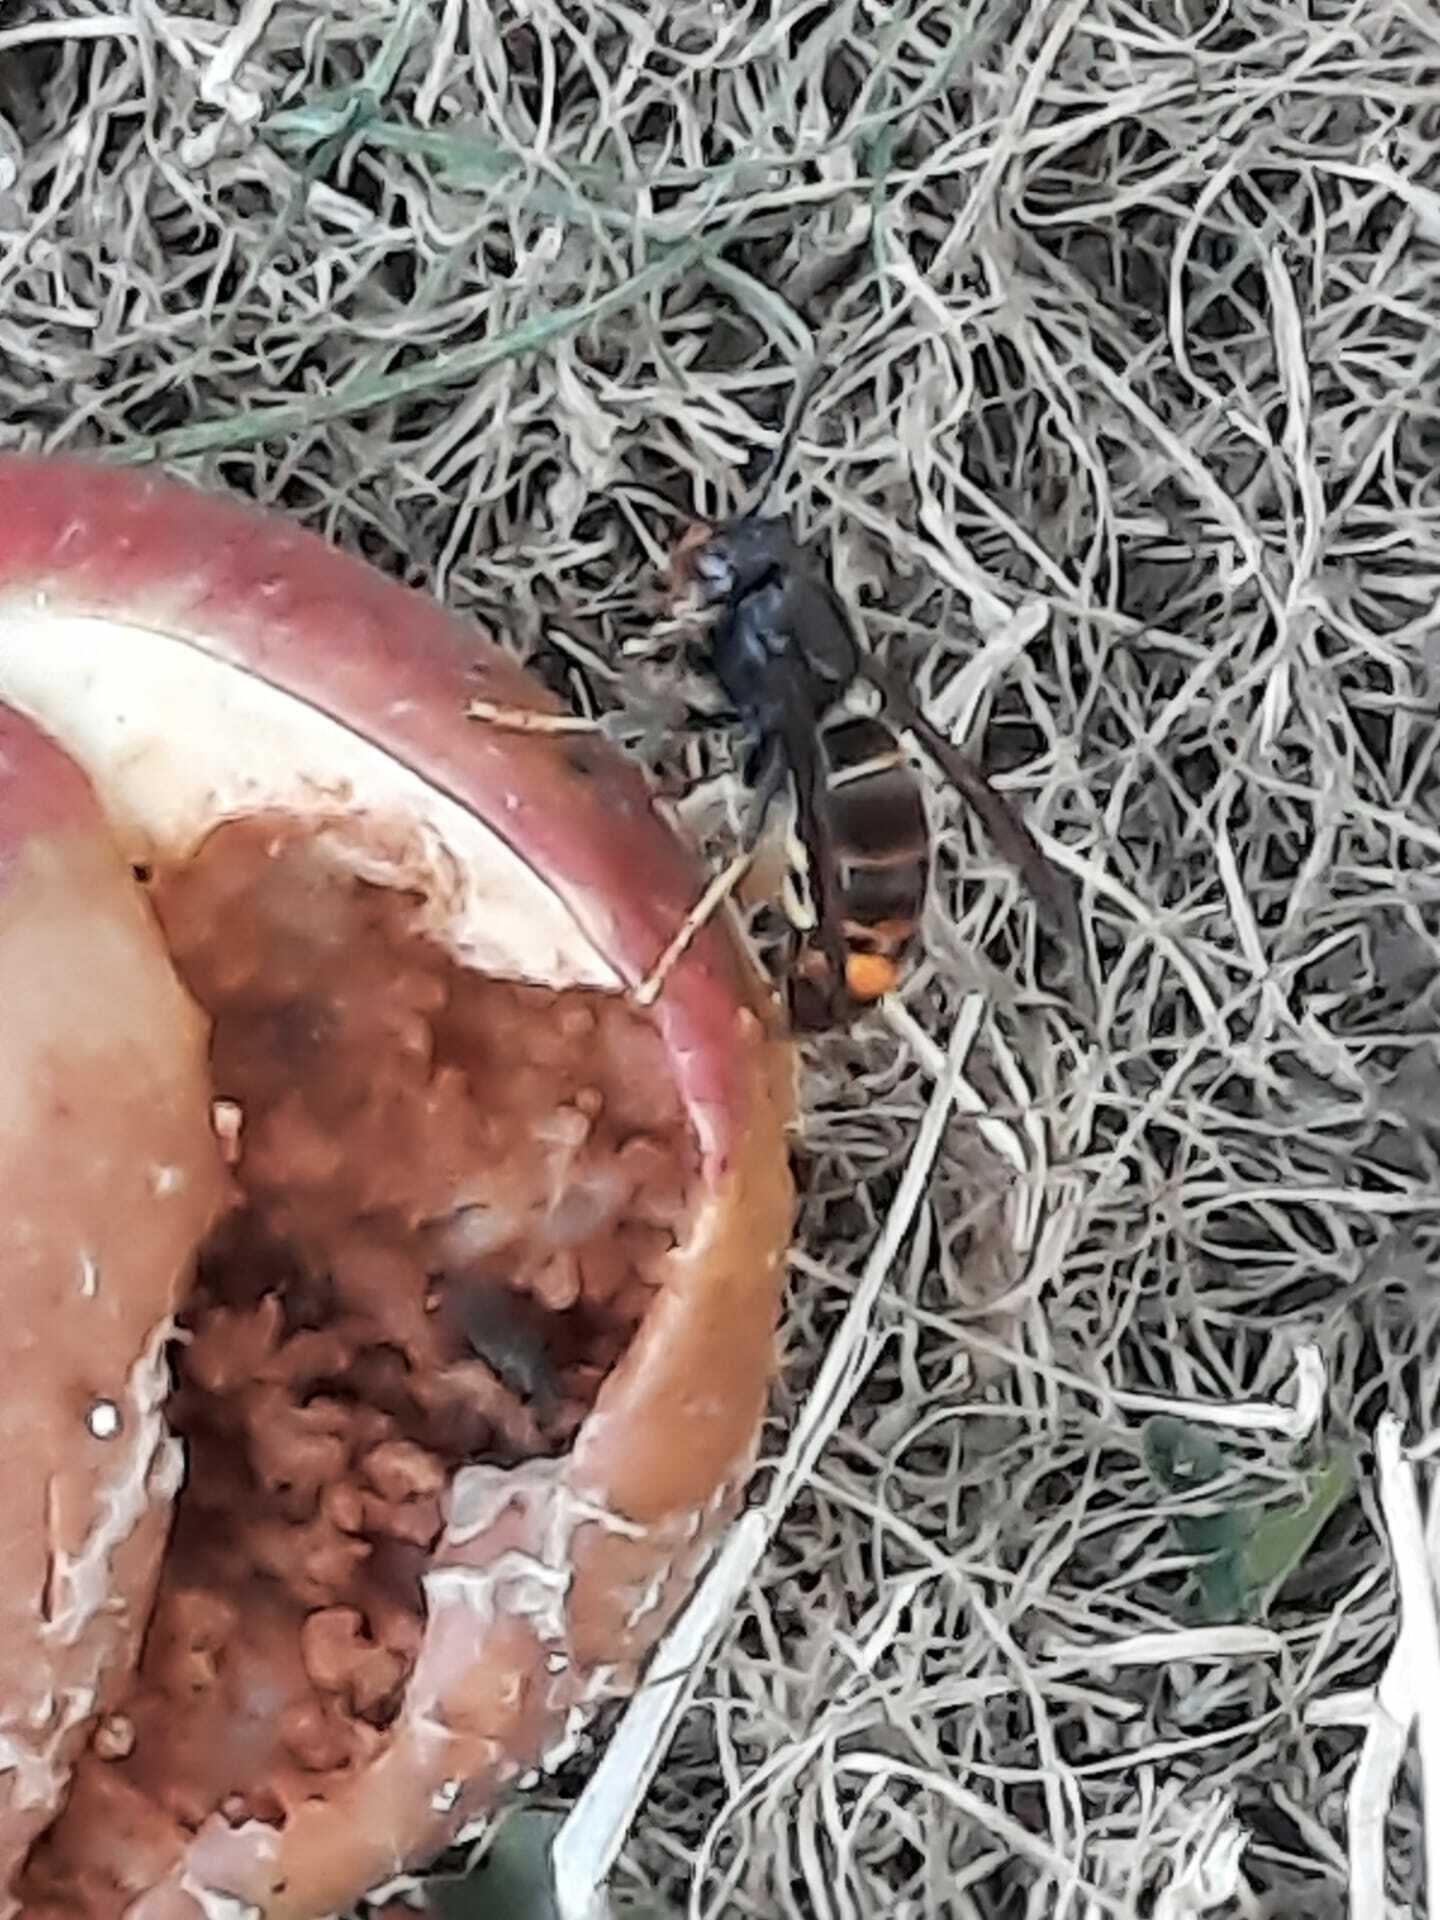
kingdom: Animalia
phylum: Arthropoda
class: Insecta
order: Hymenoptera
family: Vespidae
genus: Vespa
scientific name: Vespa velutina
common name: Asian hornet
